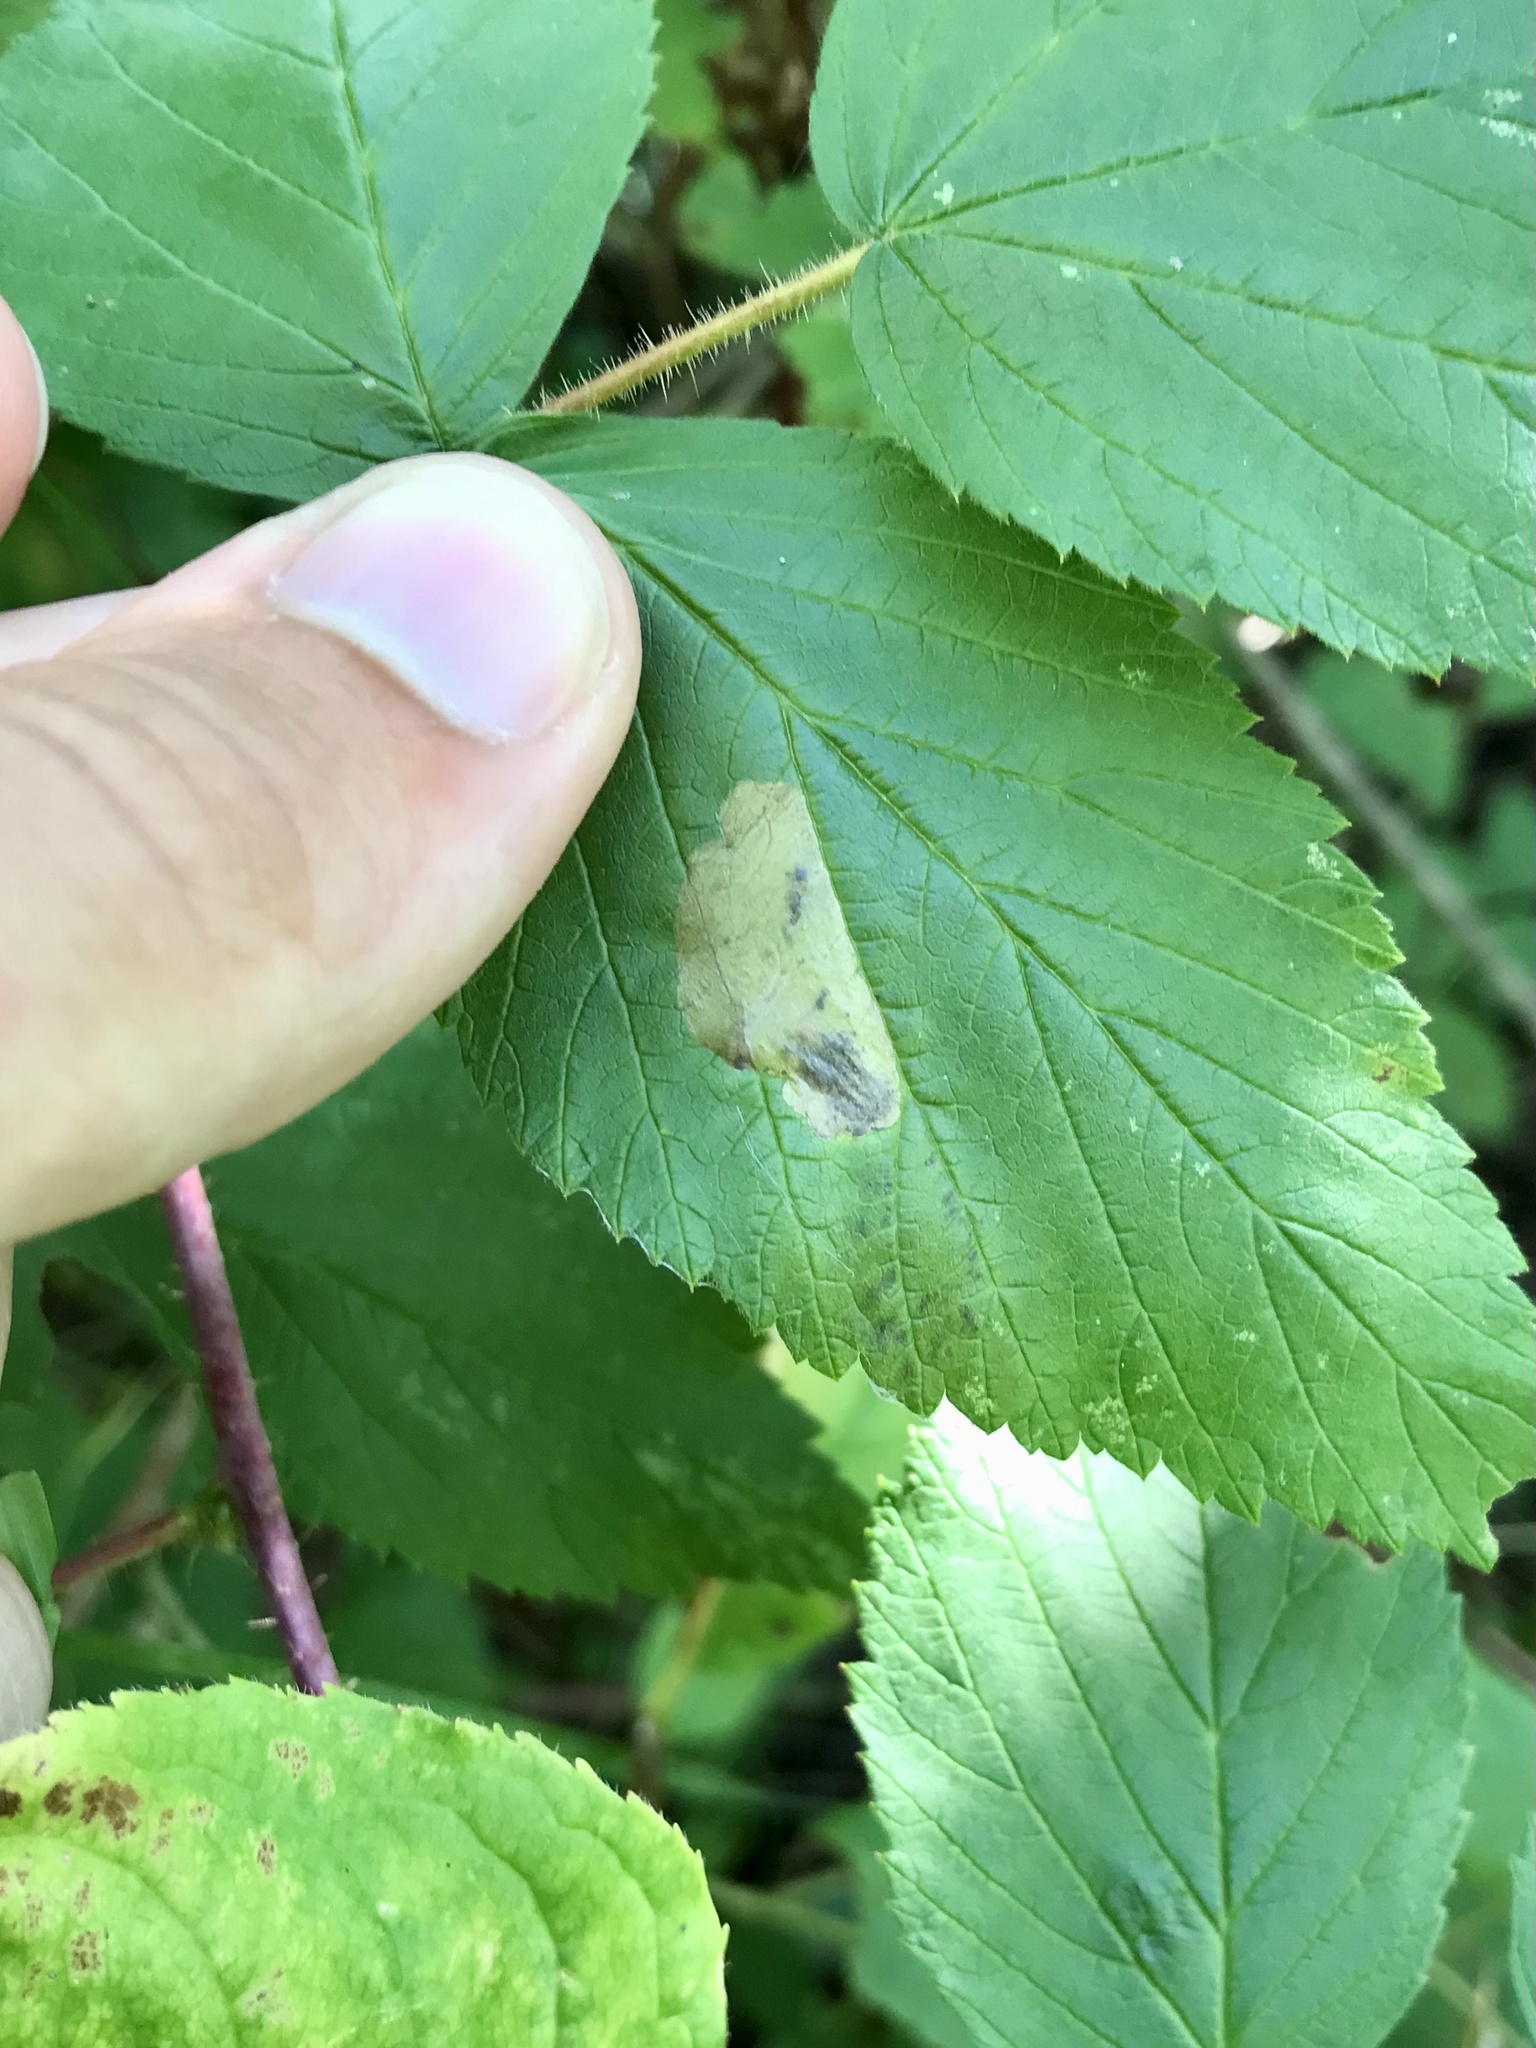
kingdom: Animalia
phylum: Arthropoda
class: Insecta
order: Hymenoptera
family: Tenthredinidae
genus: Metallus
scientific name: Metallus capitalis
